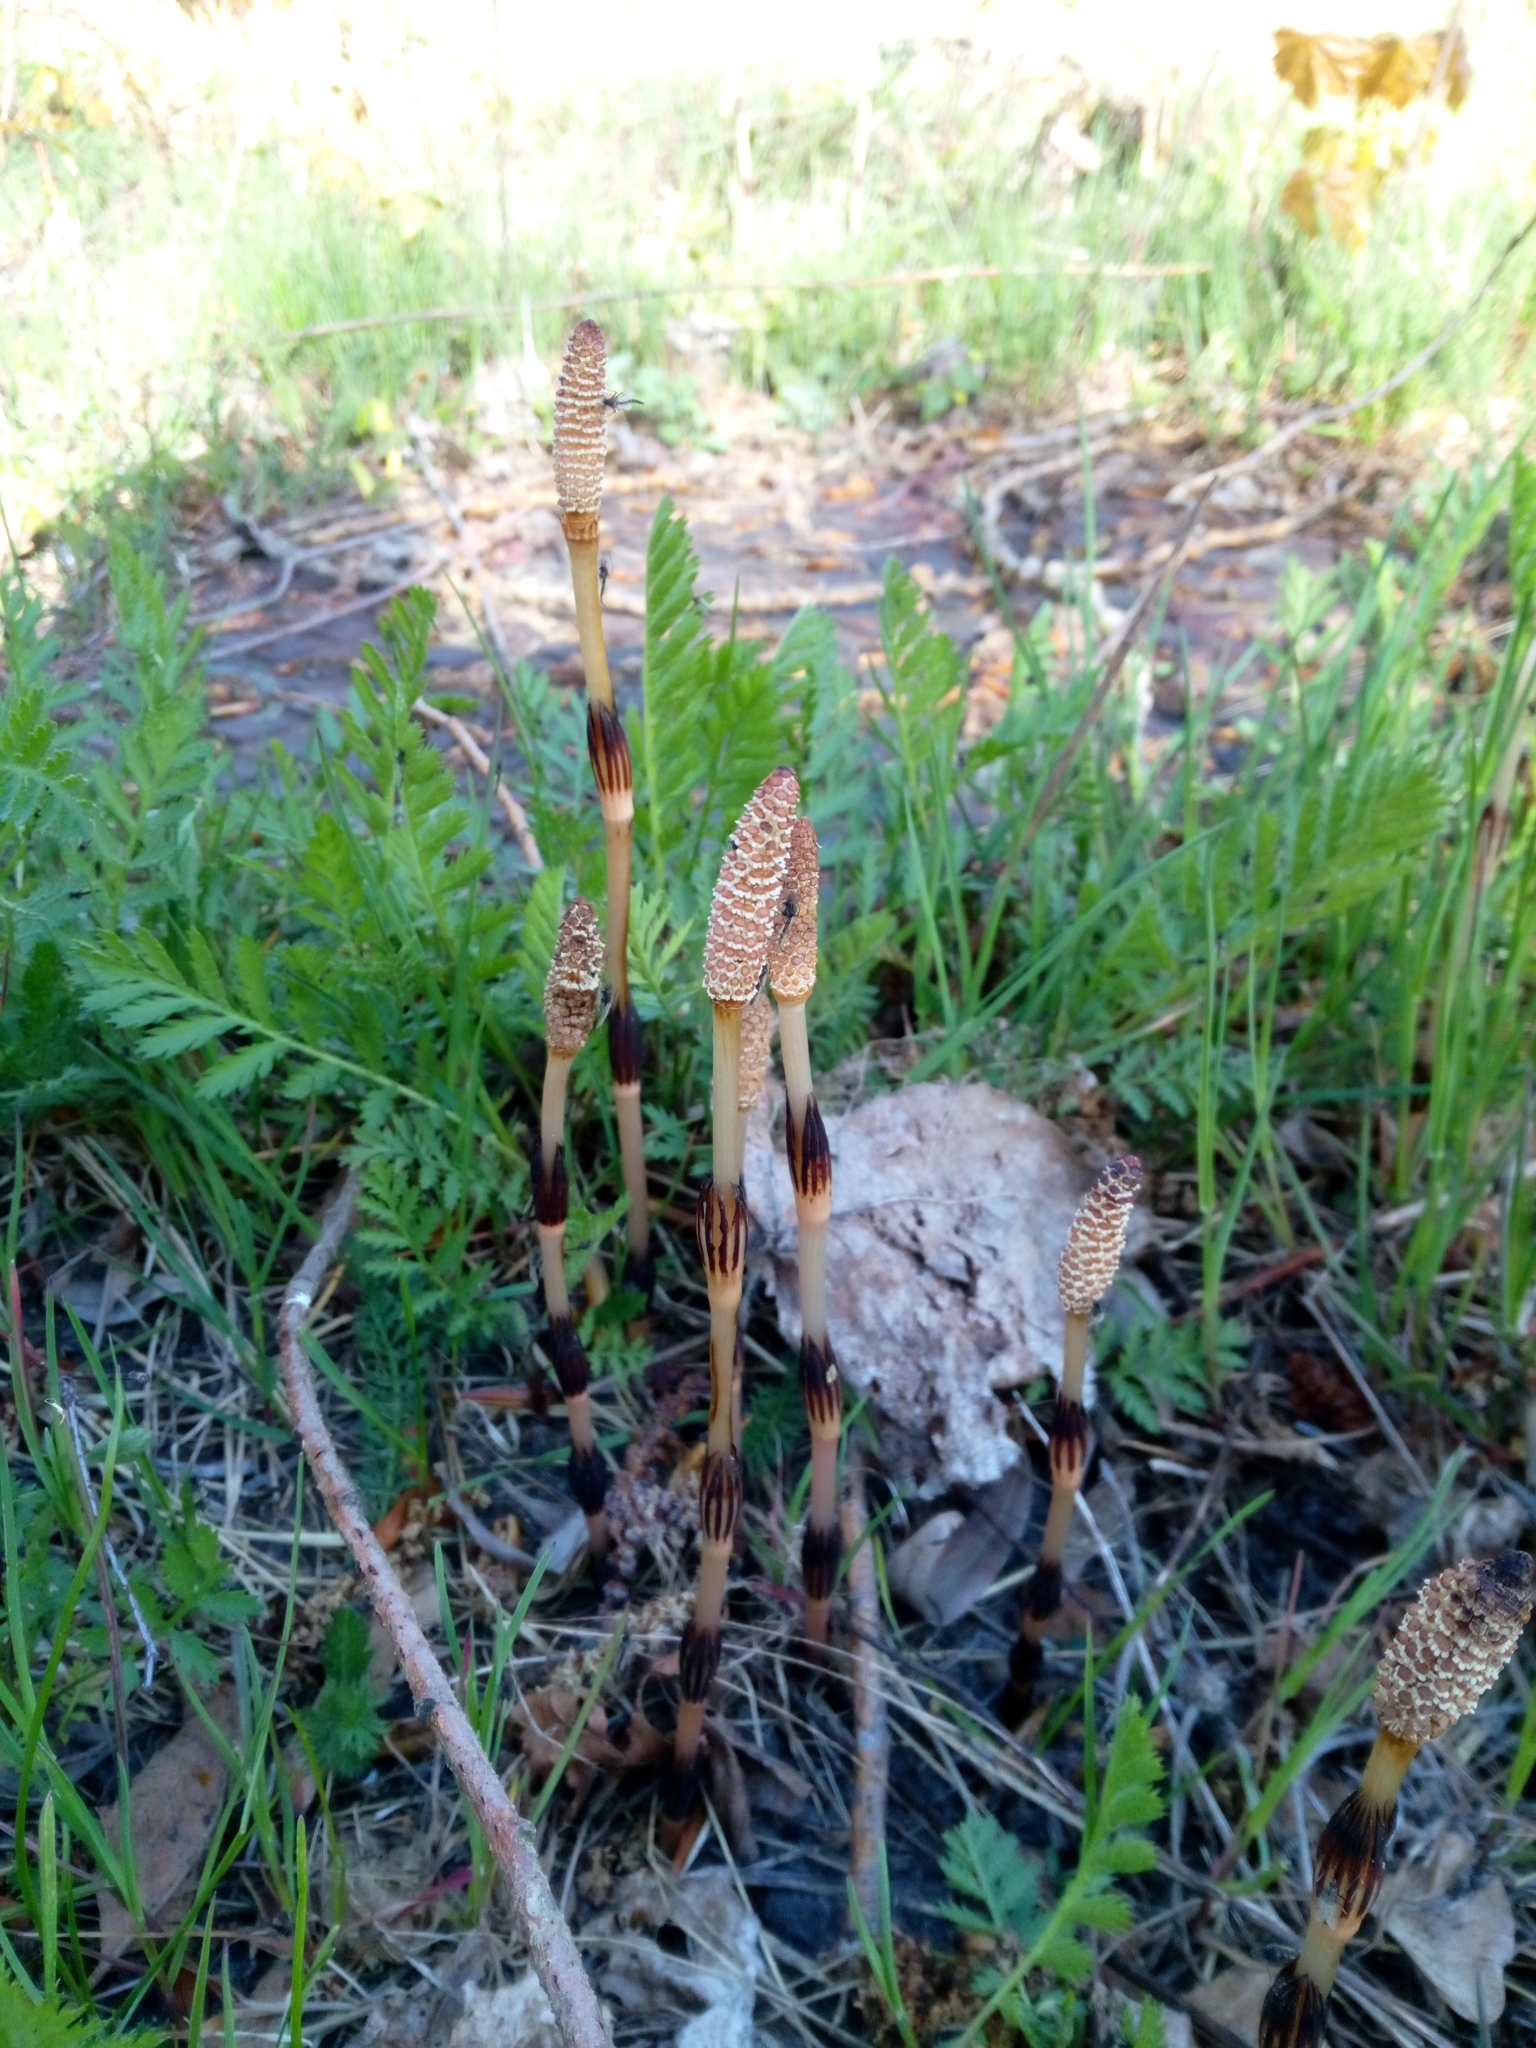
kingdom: Plantae
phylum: Tracheophyta
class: Polypodiopsida
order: Equisetales
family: Equisetaceae
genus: Equisetum
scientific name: Equisetum arvense
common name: Field horsetail
